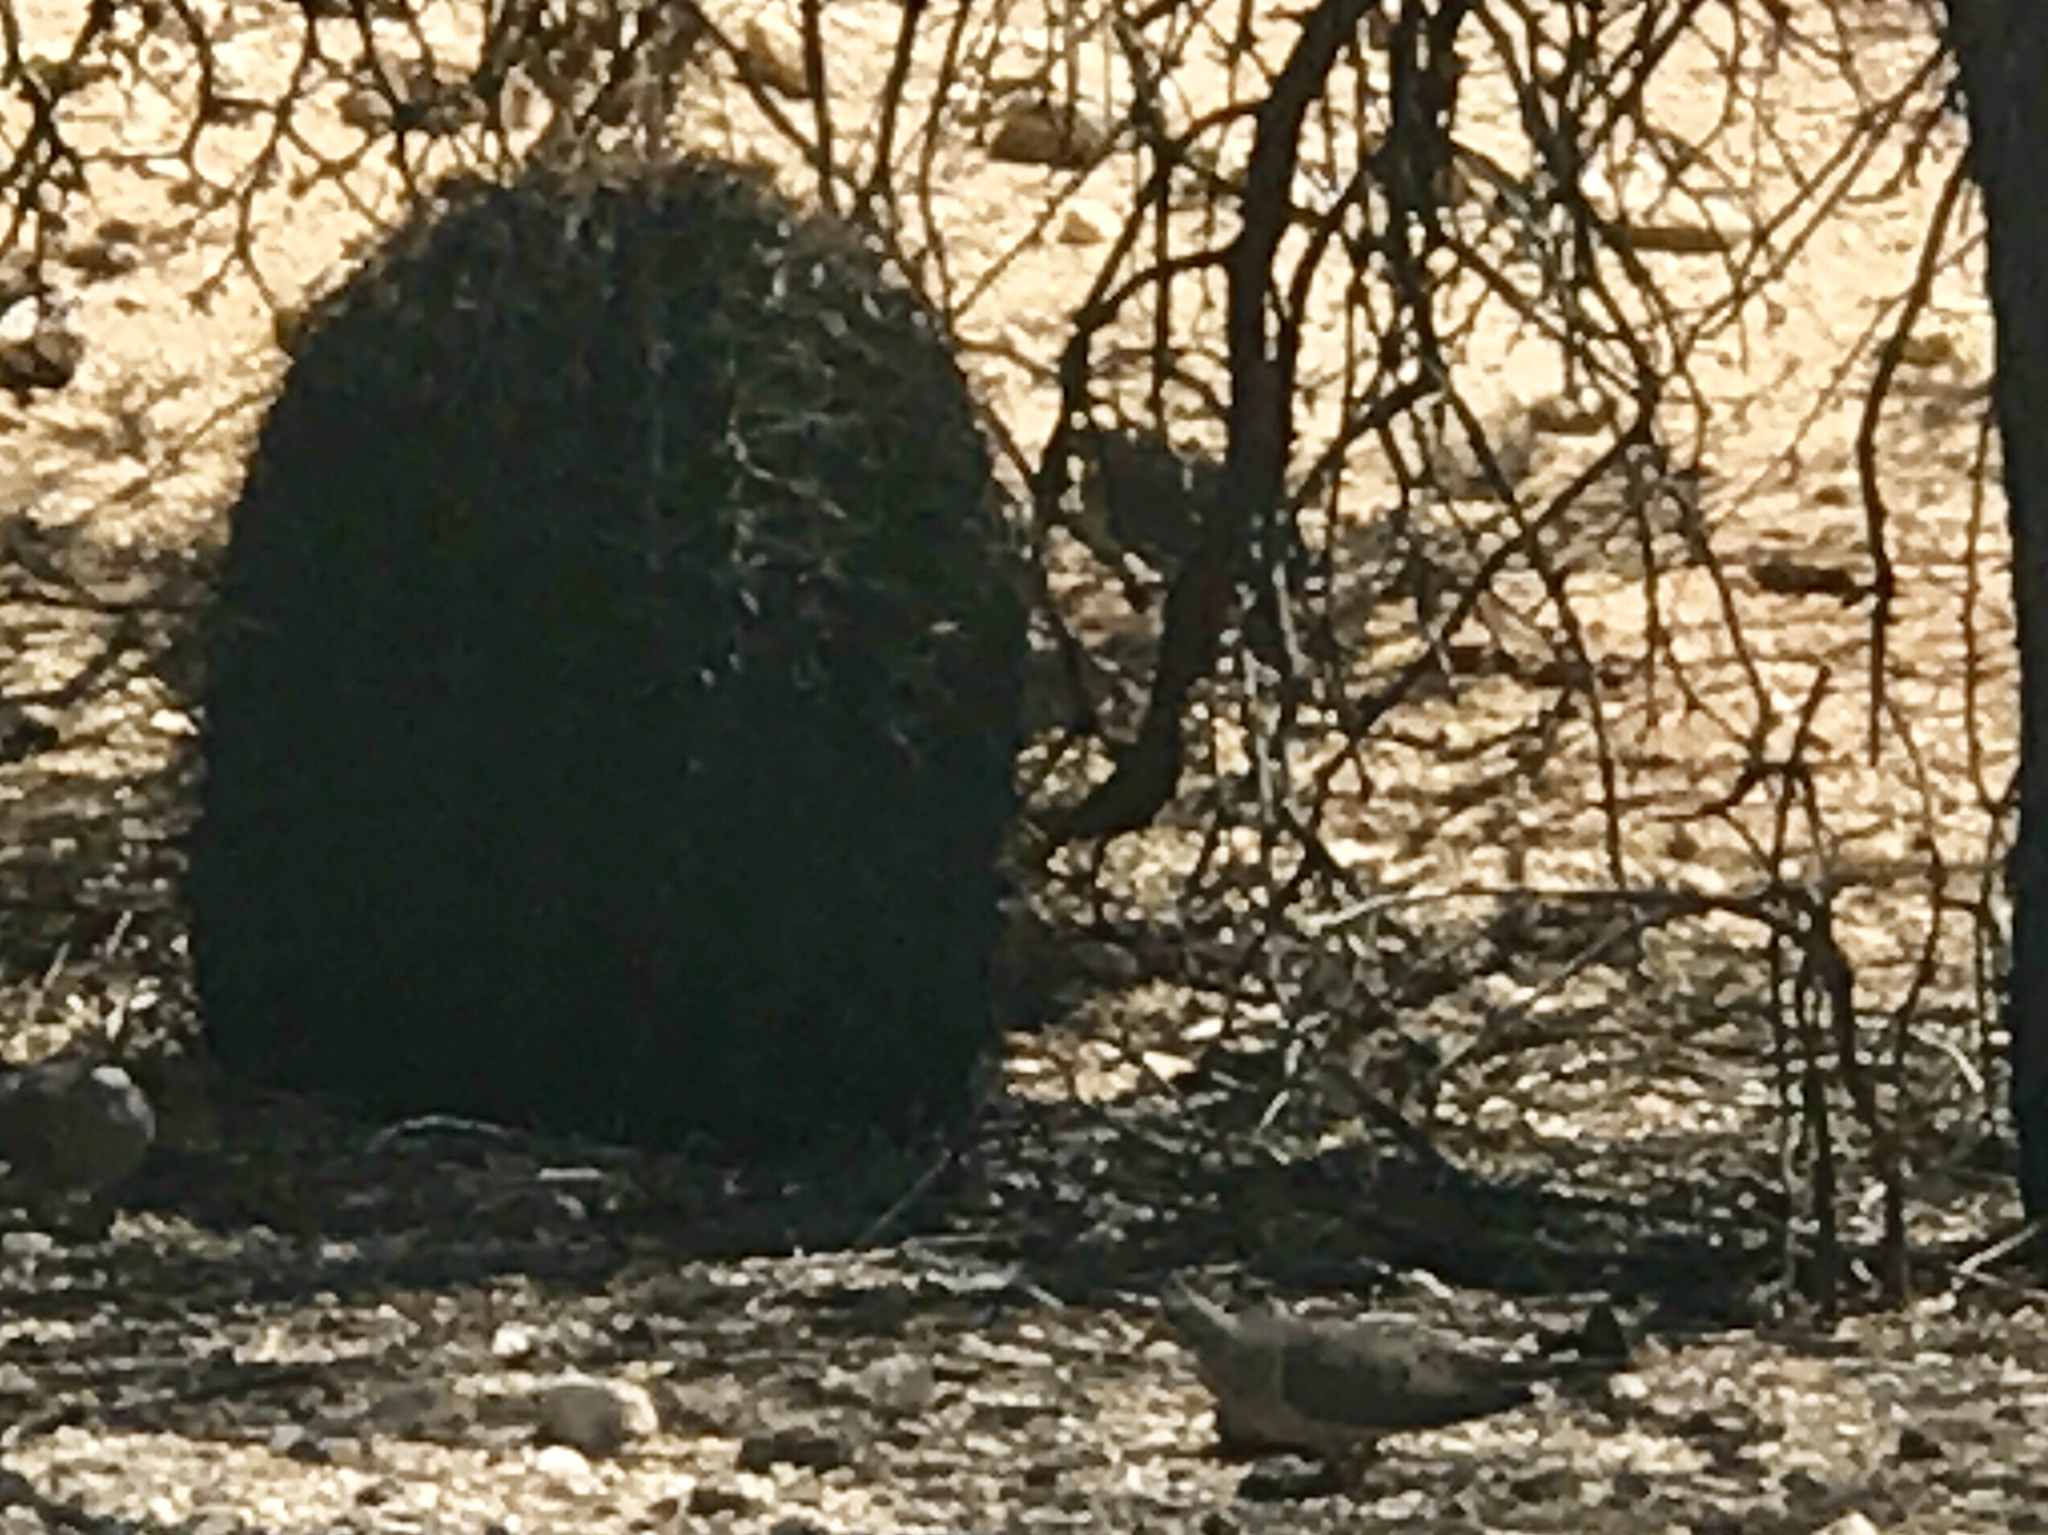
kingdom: Plantae
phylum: Tracheophyta
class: Magnoliopsida
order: Caryophyllales
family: Cactaceae
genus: Ferocactus
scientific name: Ferocactus wislizeni
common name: Candy barrel cactus
